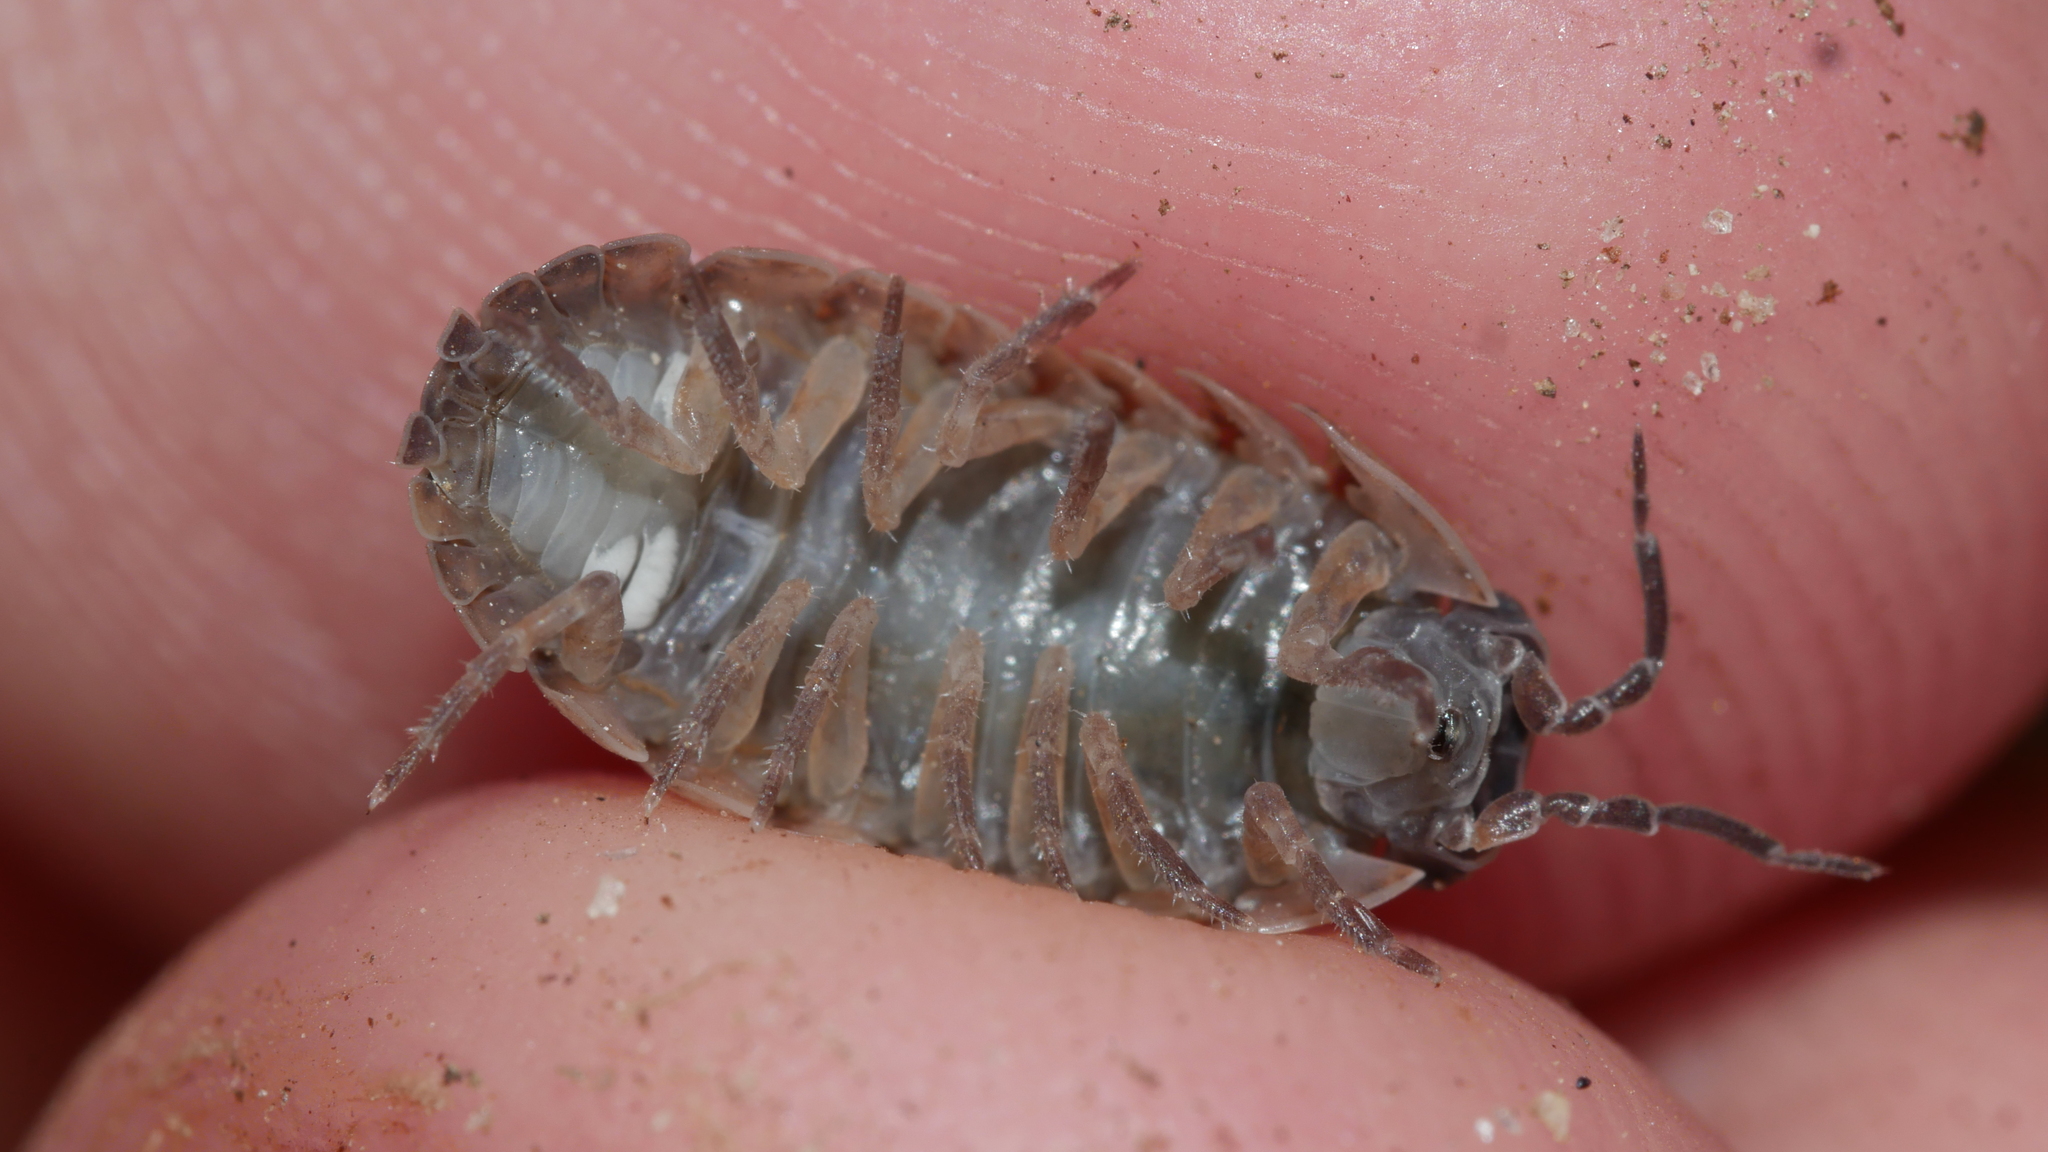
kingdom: Animalia
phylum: Arthropoda
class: Malacostraca
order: Isopoda
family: Armadillidiidae
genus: Armadillidium
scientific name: Armadillidium vulgare
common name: Common pill woodlouse
